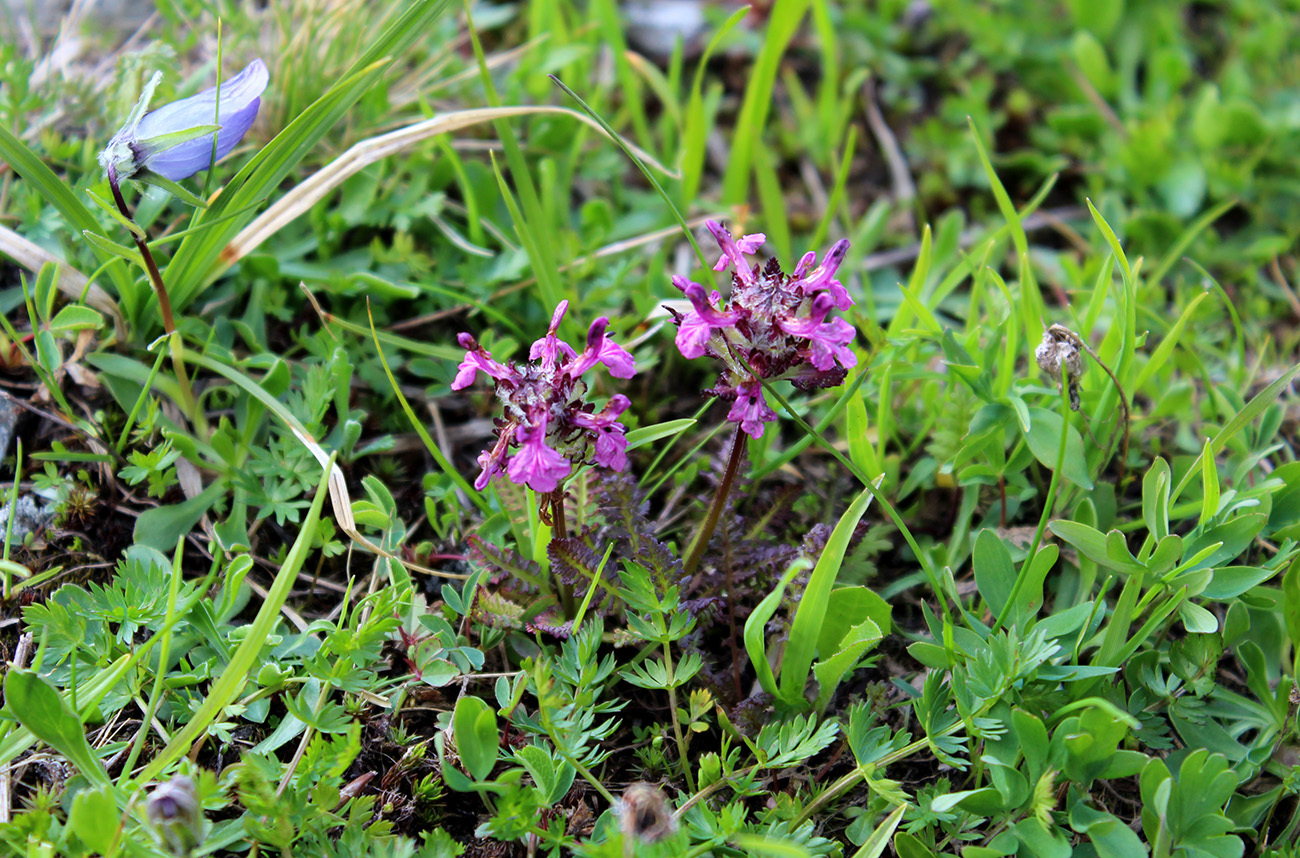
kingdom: Plantae
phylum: Tracheophyta
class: Magnoliopsida
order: Lamiales
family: Orobanchaceae
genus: Pedicularis
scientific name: Pedicularis caucasica
